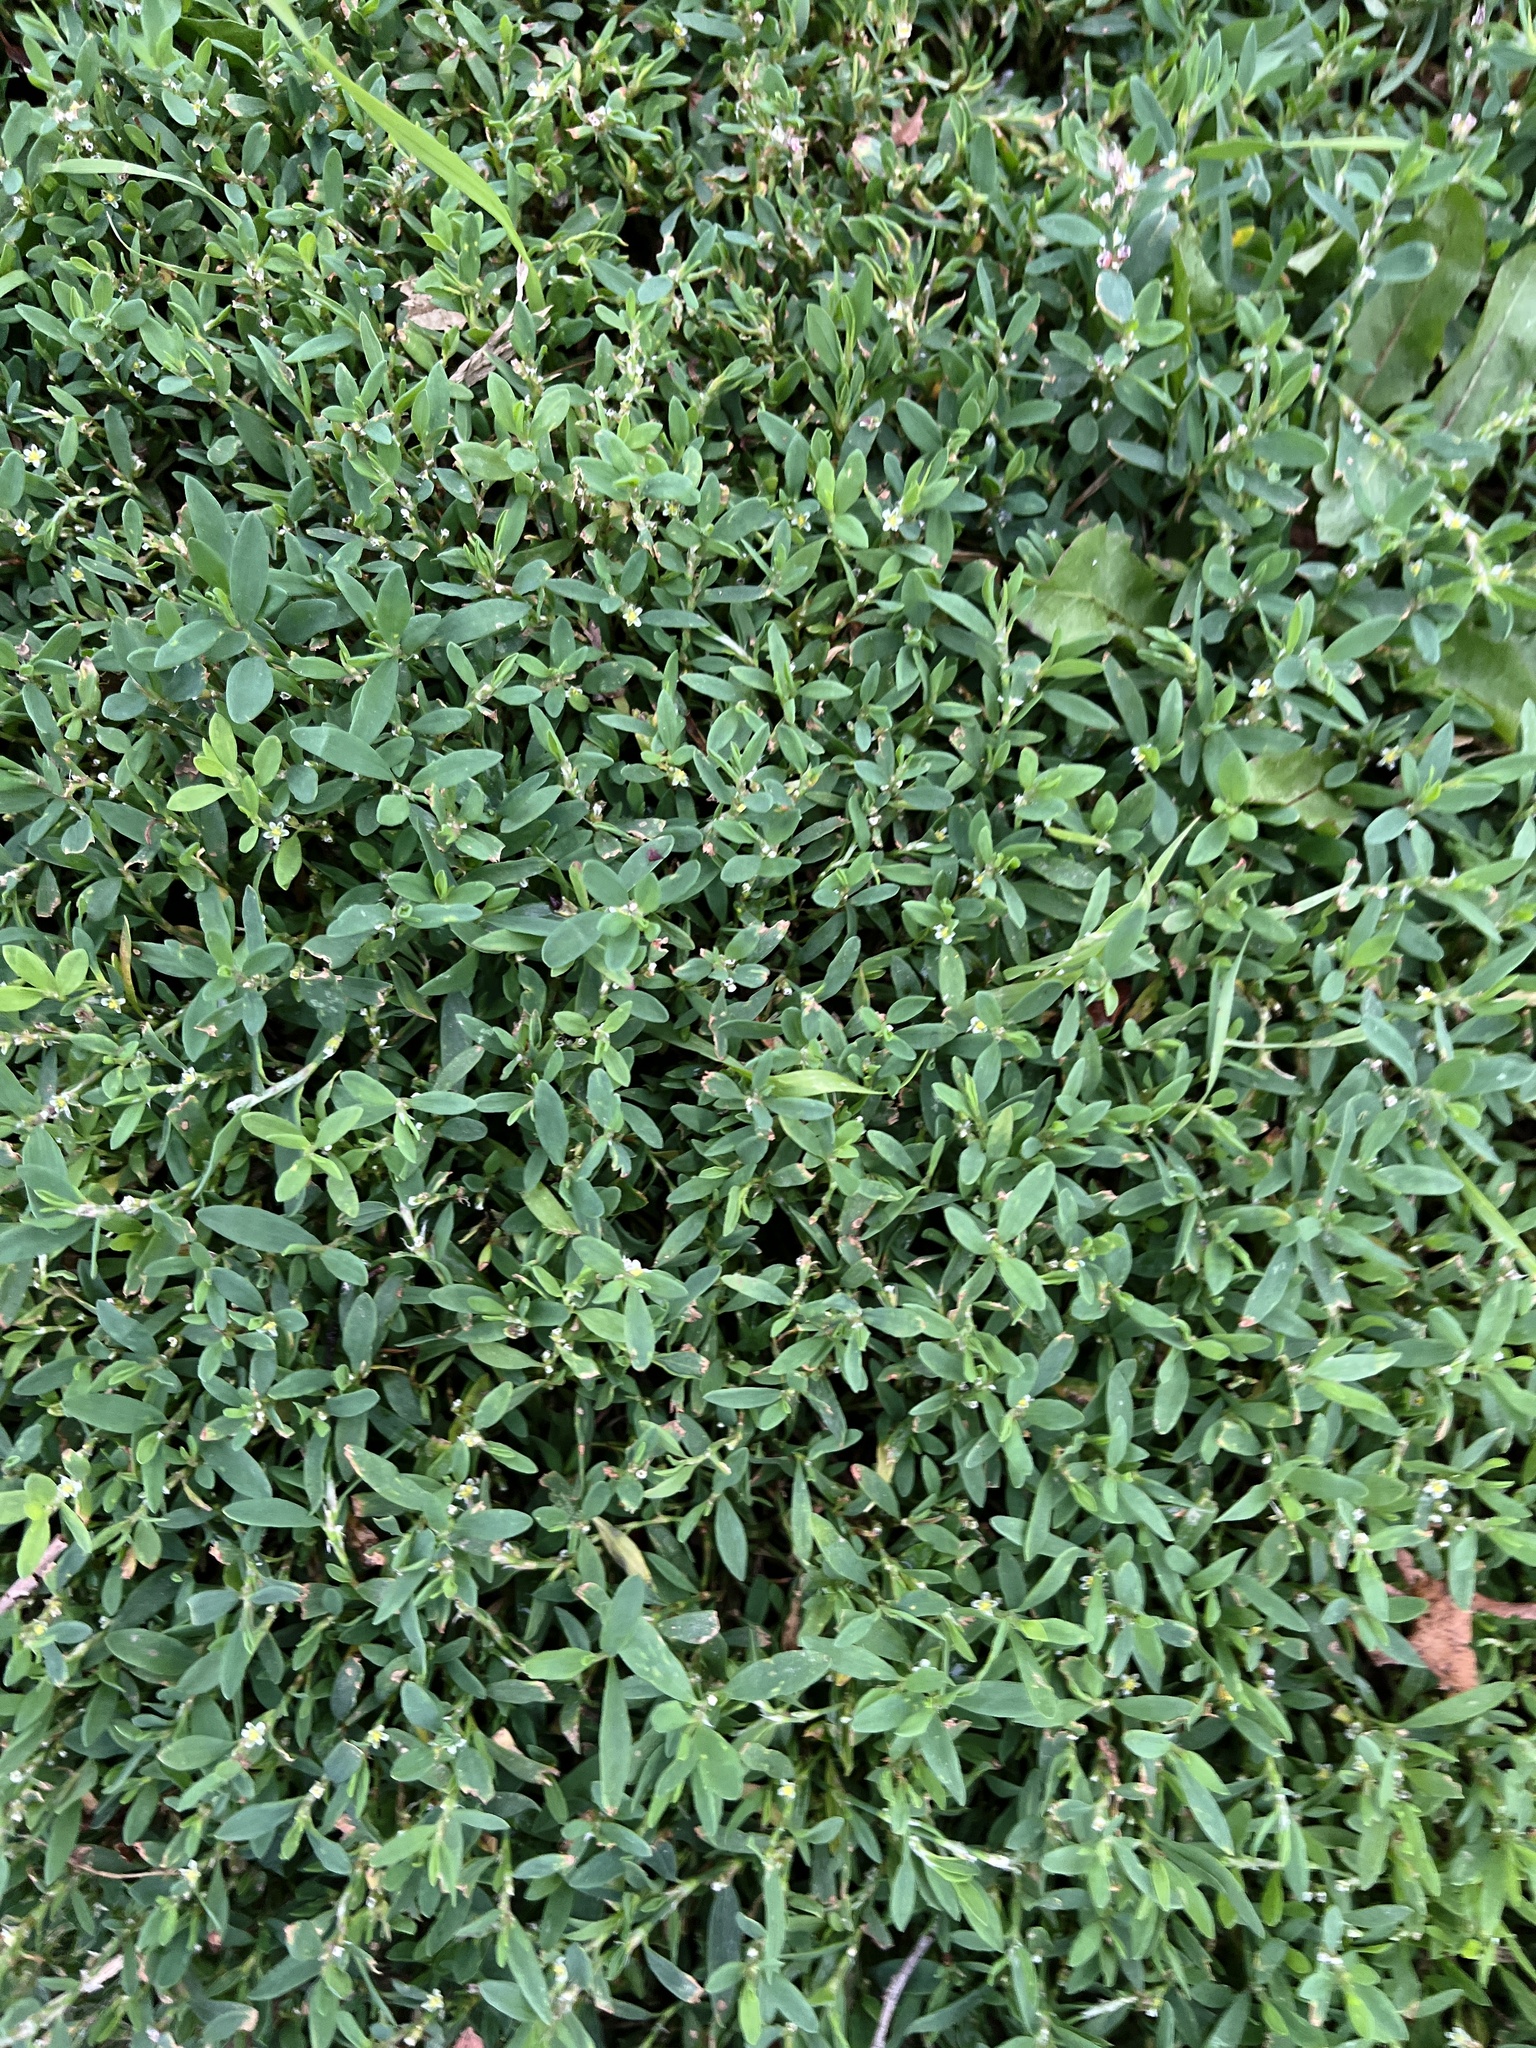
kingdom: Plantae
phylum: Tracheophyta
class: Magnoliopsida
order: Caryophyllales
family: Polygonaceae
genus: Polygonum
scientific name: Polygonum aviculare
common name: Prostrate knotweed
